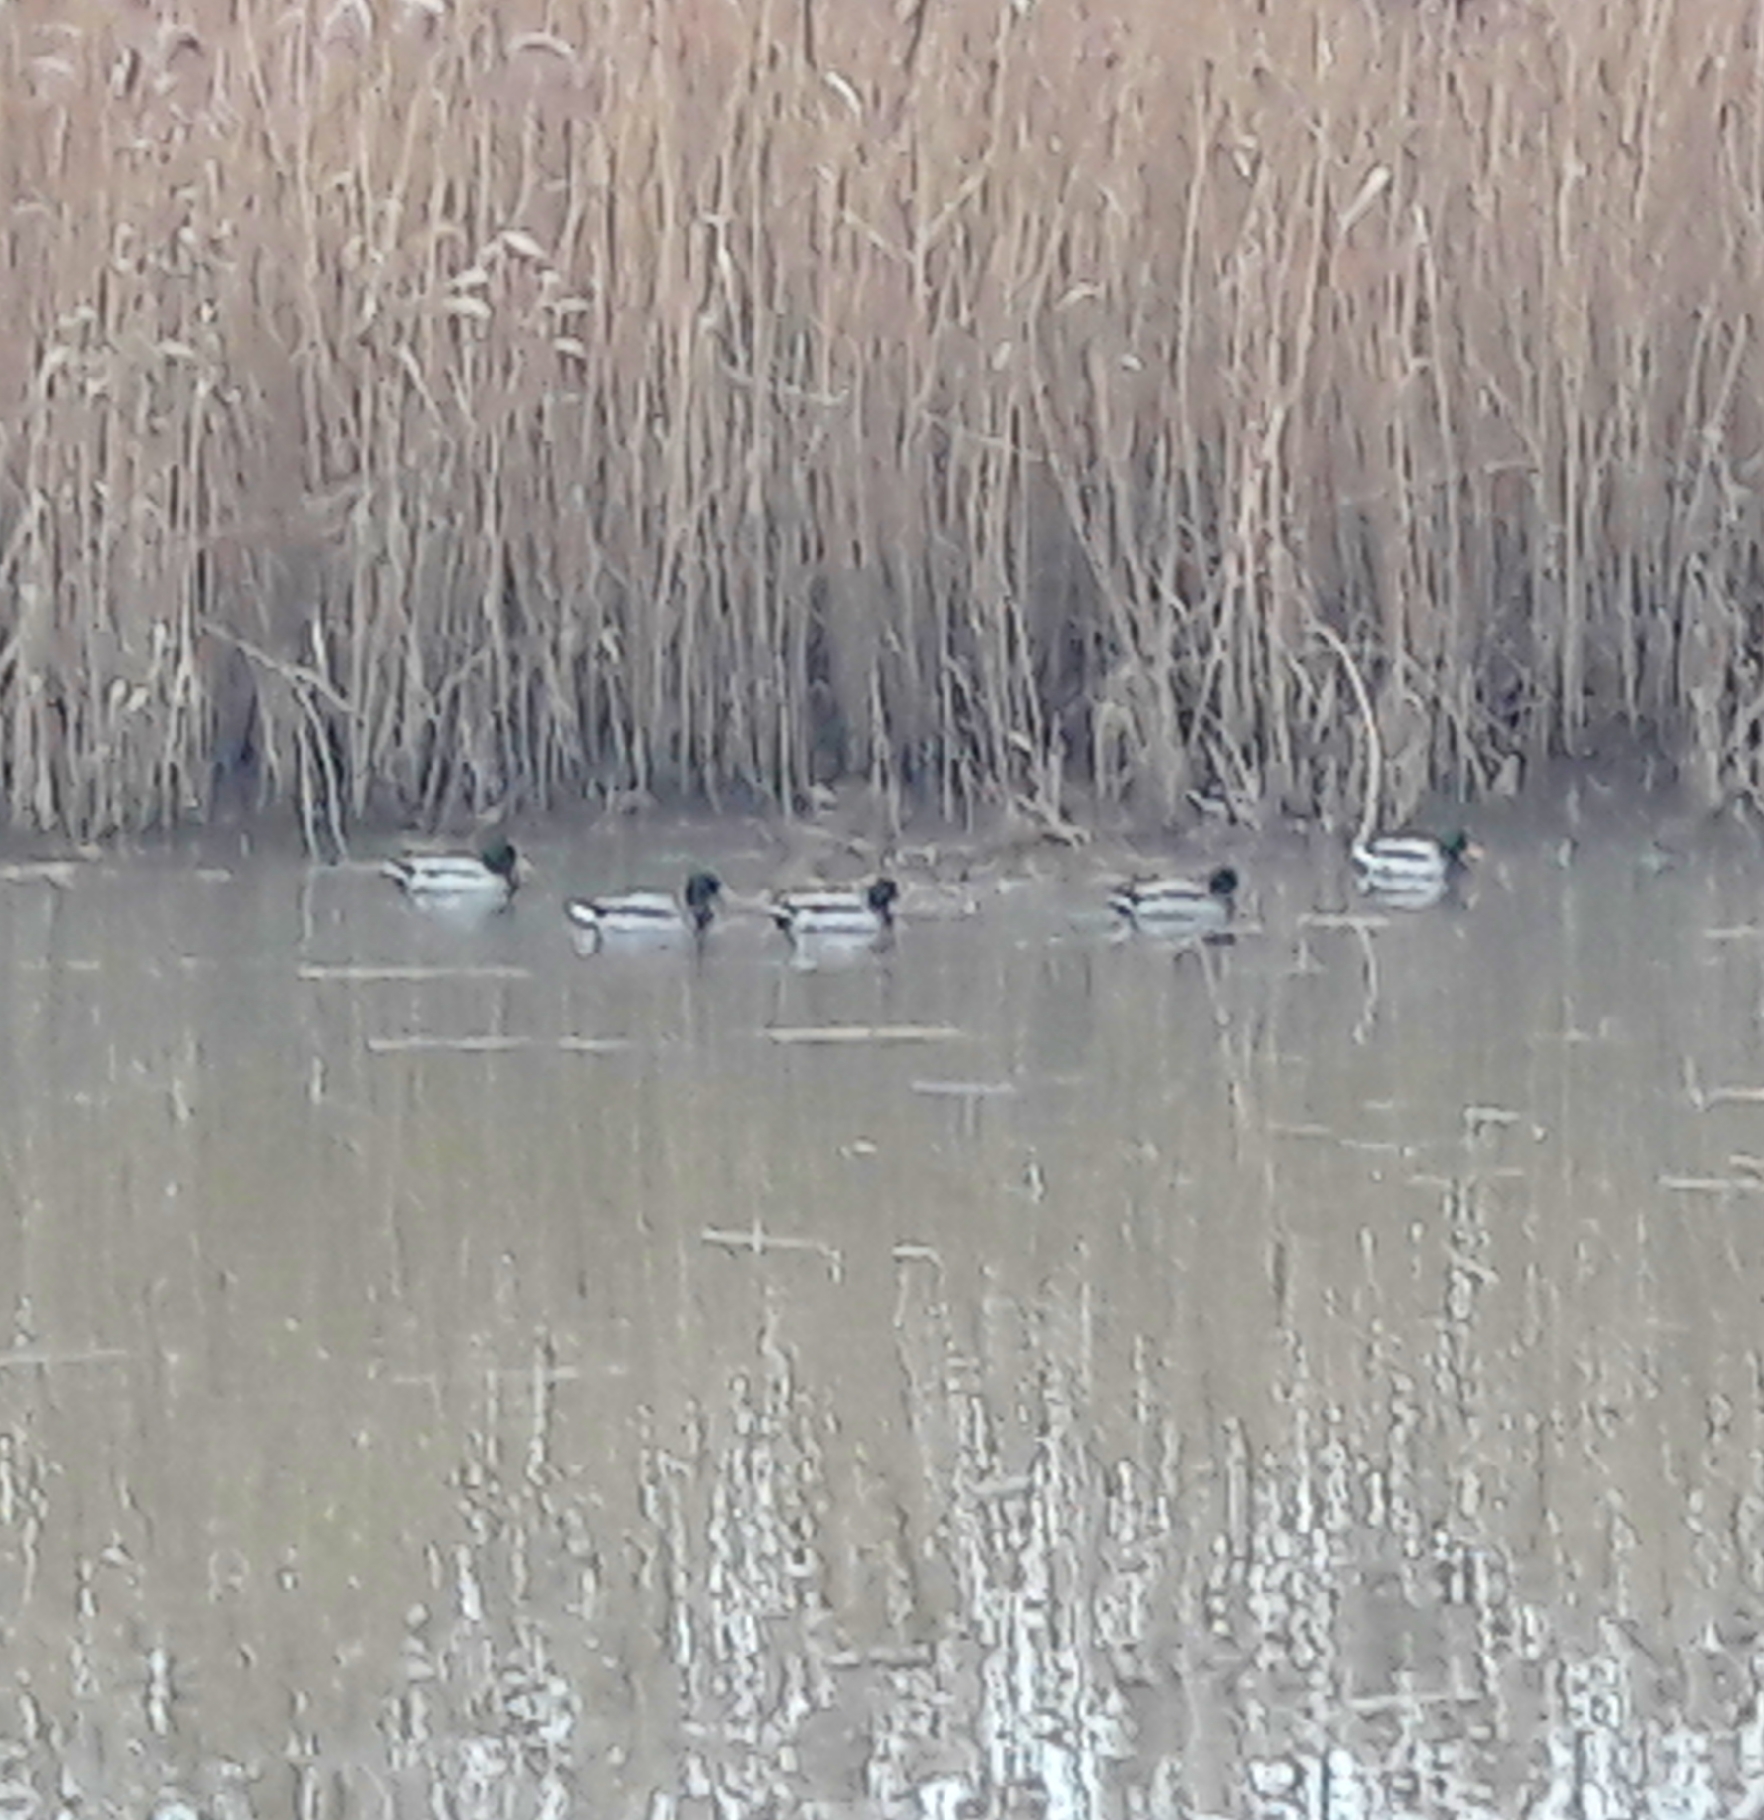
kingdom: Animalia
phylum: Chordata
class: Aves
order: Anseriformes
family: Anatidae
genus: Anas
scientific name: Anas platyrhynchos
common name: Mallard
